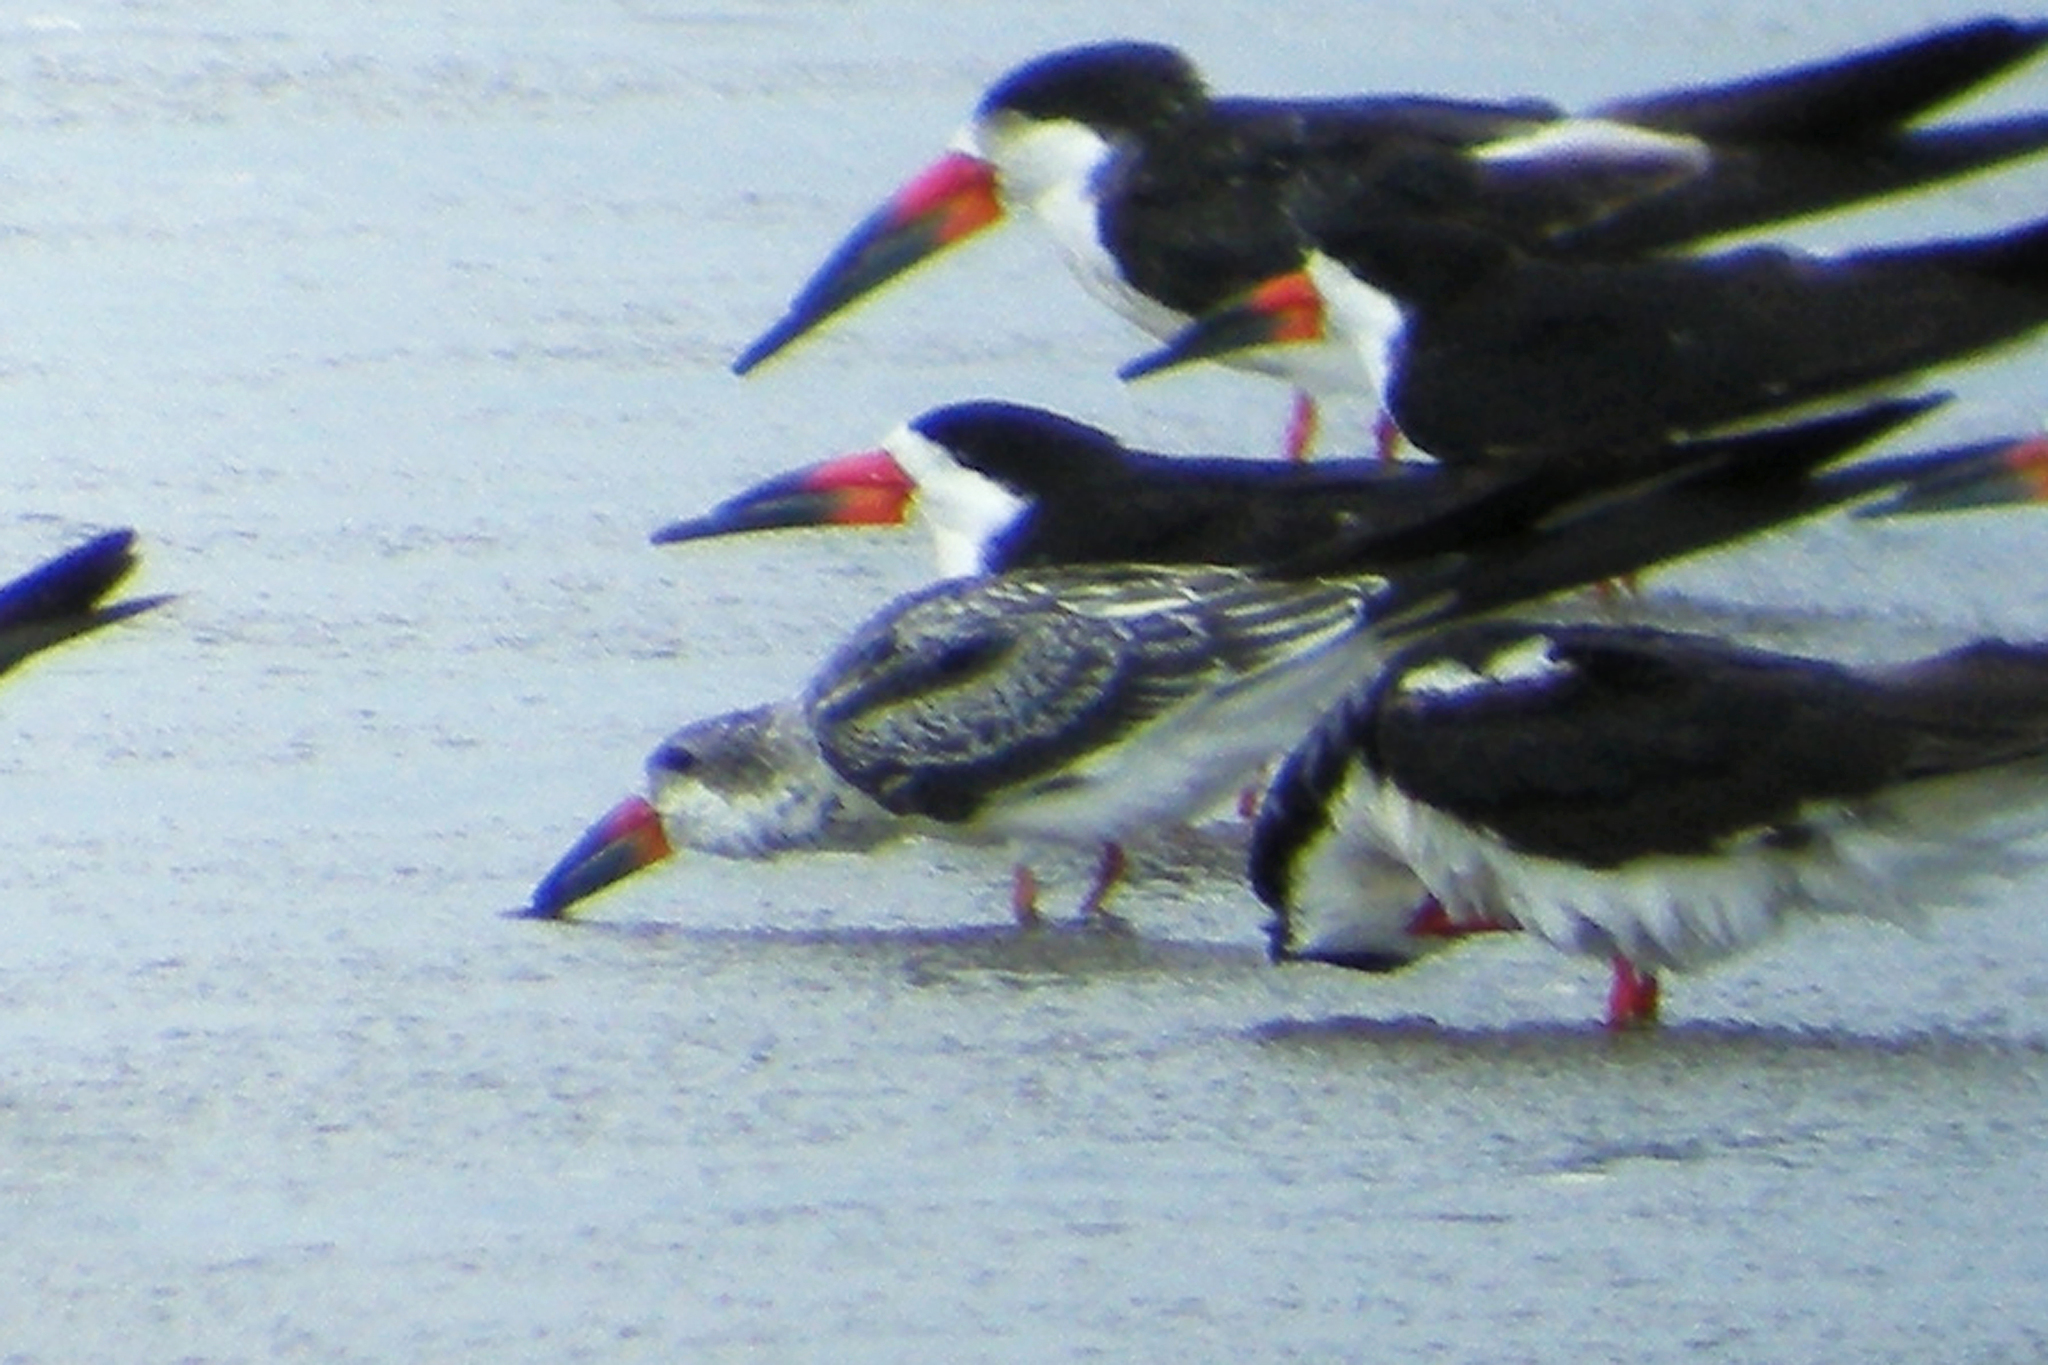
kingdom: Animalia
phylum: Chordata
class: Aves
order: Charadriiformes
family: Laridae
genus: Rynchops
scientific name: Rynchops niger
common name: Black skimmer
